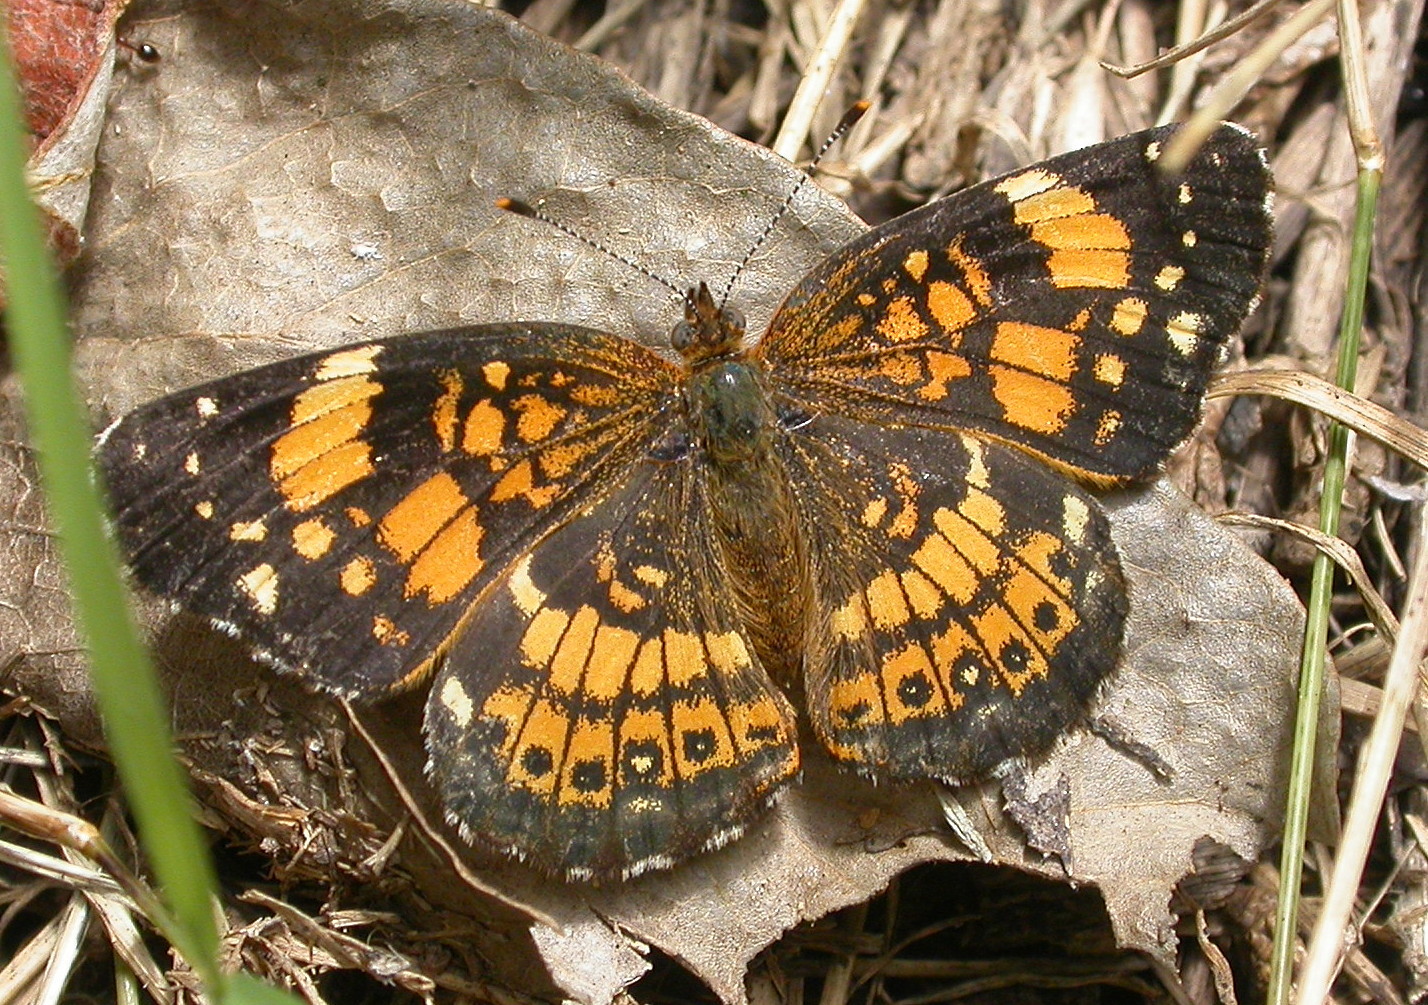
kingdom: Animalia
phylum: Arthropoda
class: Insecta
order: Lepidoptera
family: Nymphalidae
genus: Chlosyne
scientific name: Chlosyne nycteis
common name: Silvery checkerspot
